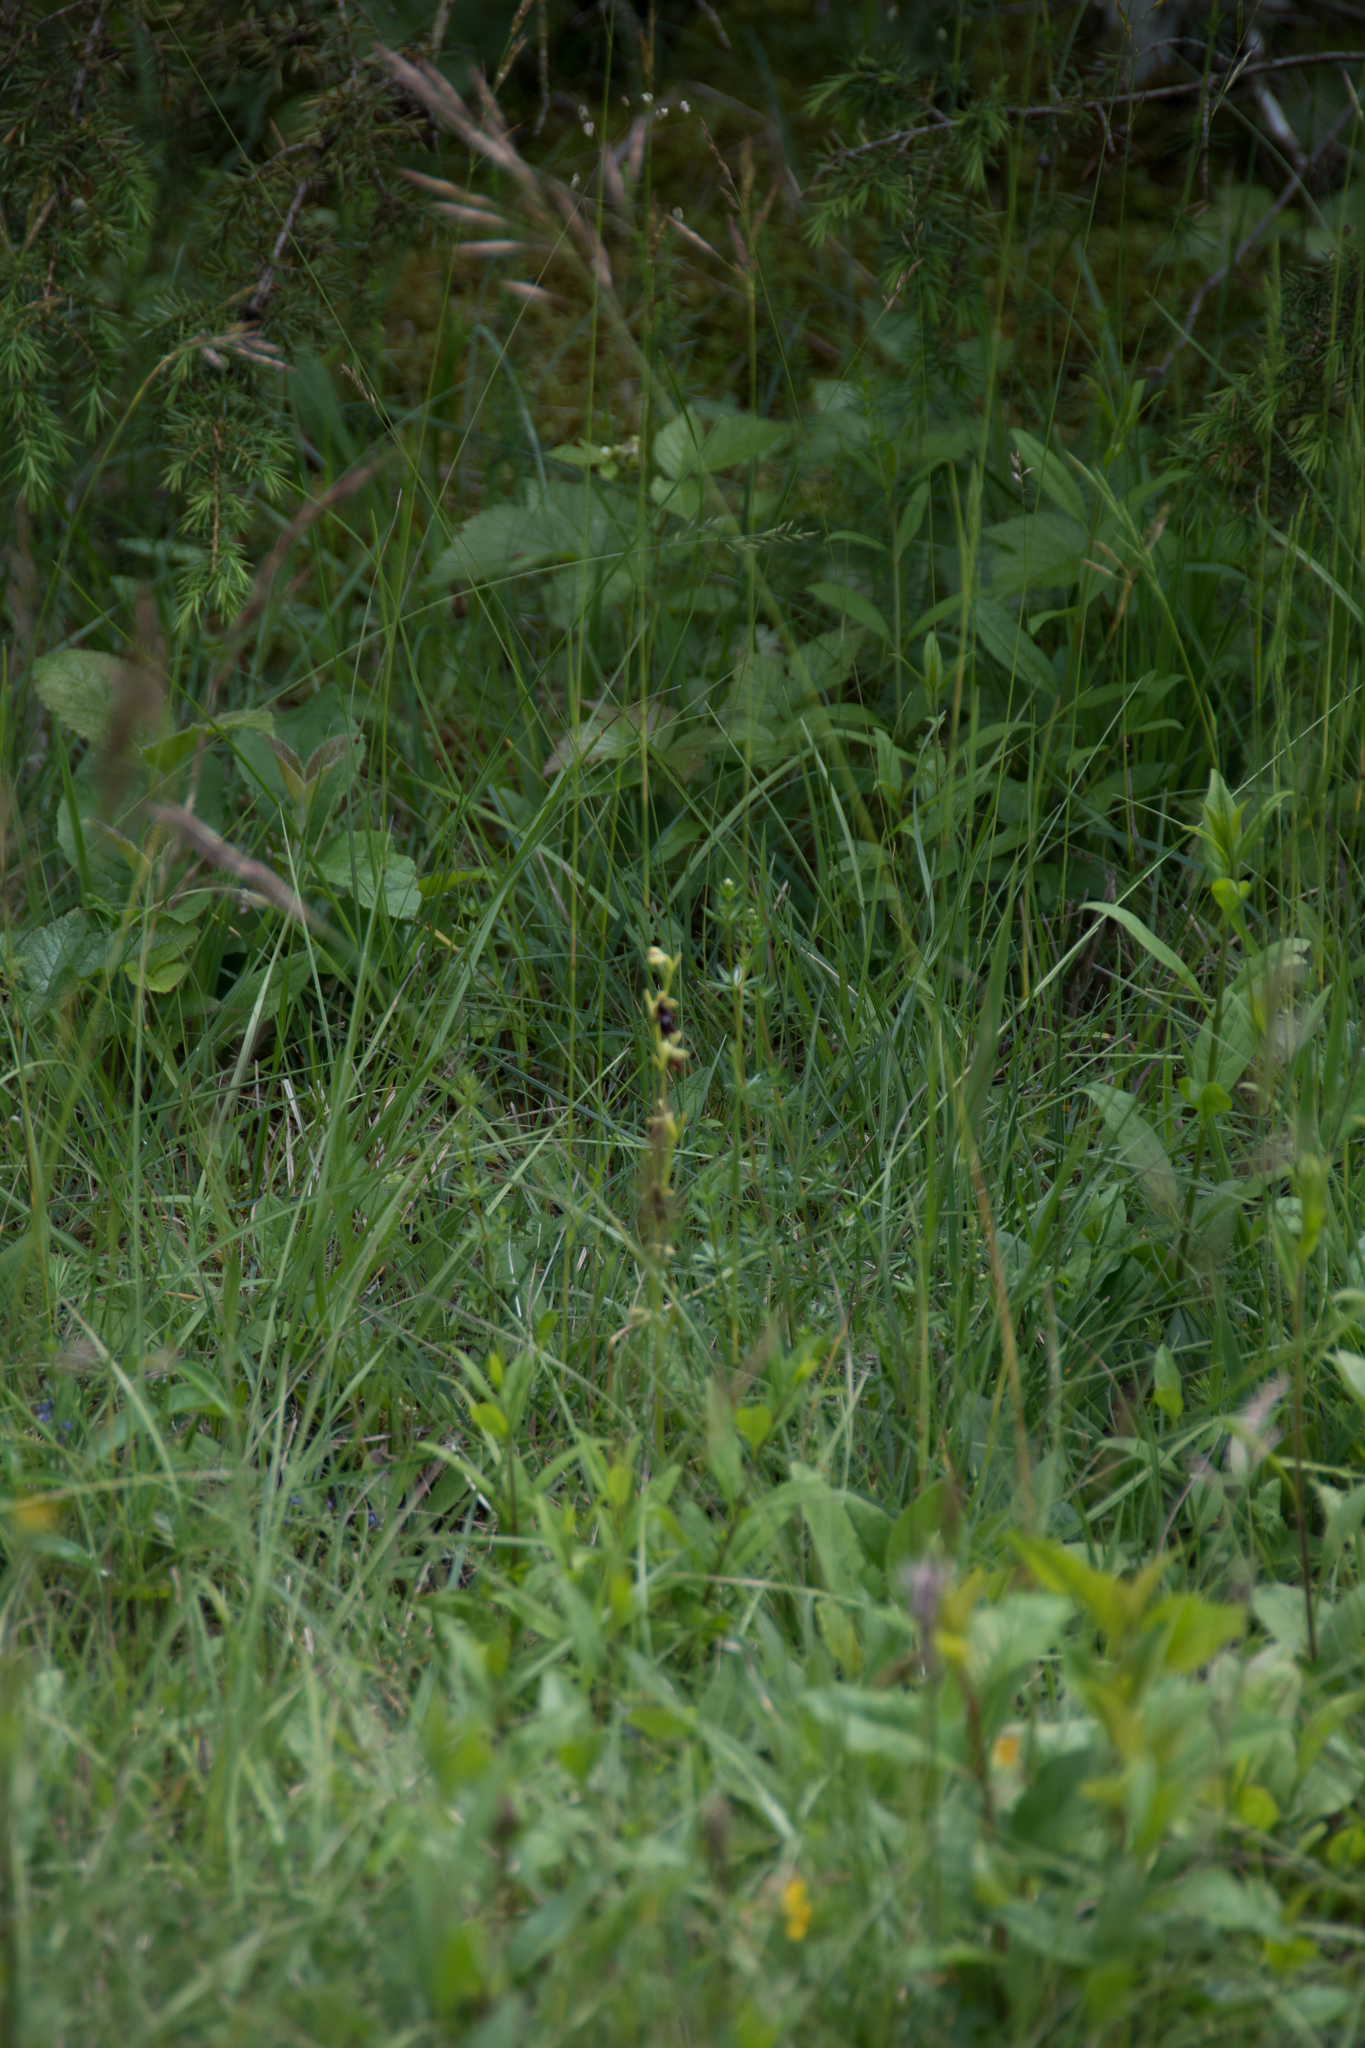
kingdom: Plantae
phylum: Tracheophyta
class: Liliopsida
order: Asparagales
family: Orchidaceae
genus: Ophrys
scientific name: Ophrys insectifera
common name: Fly orchid
